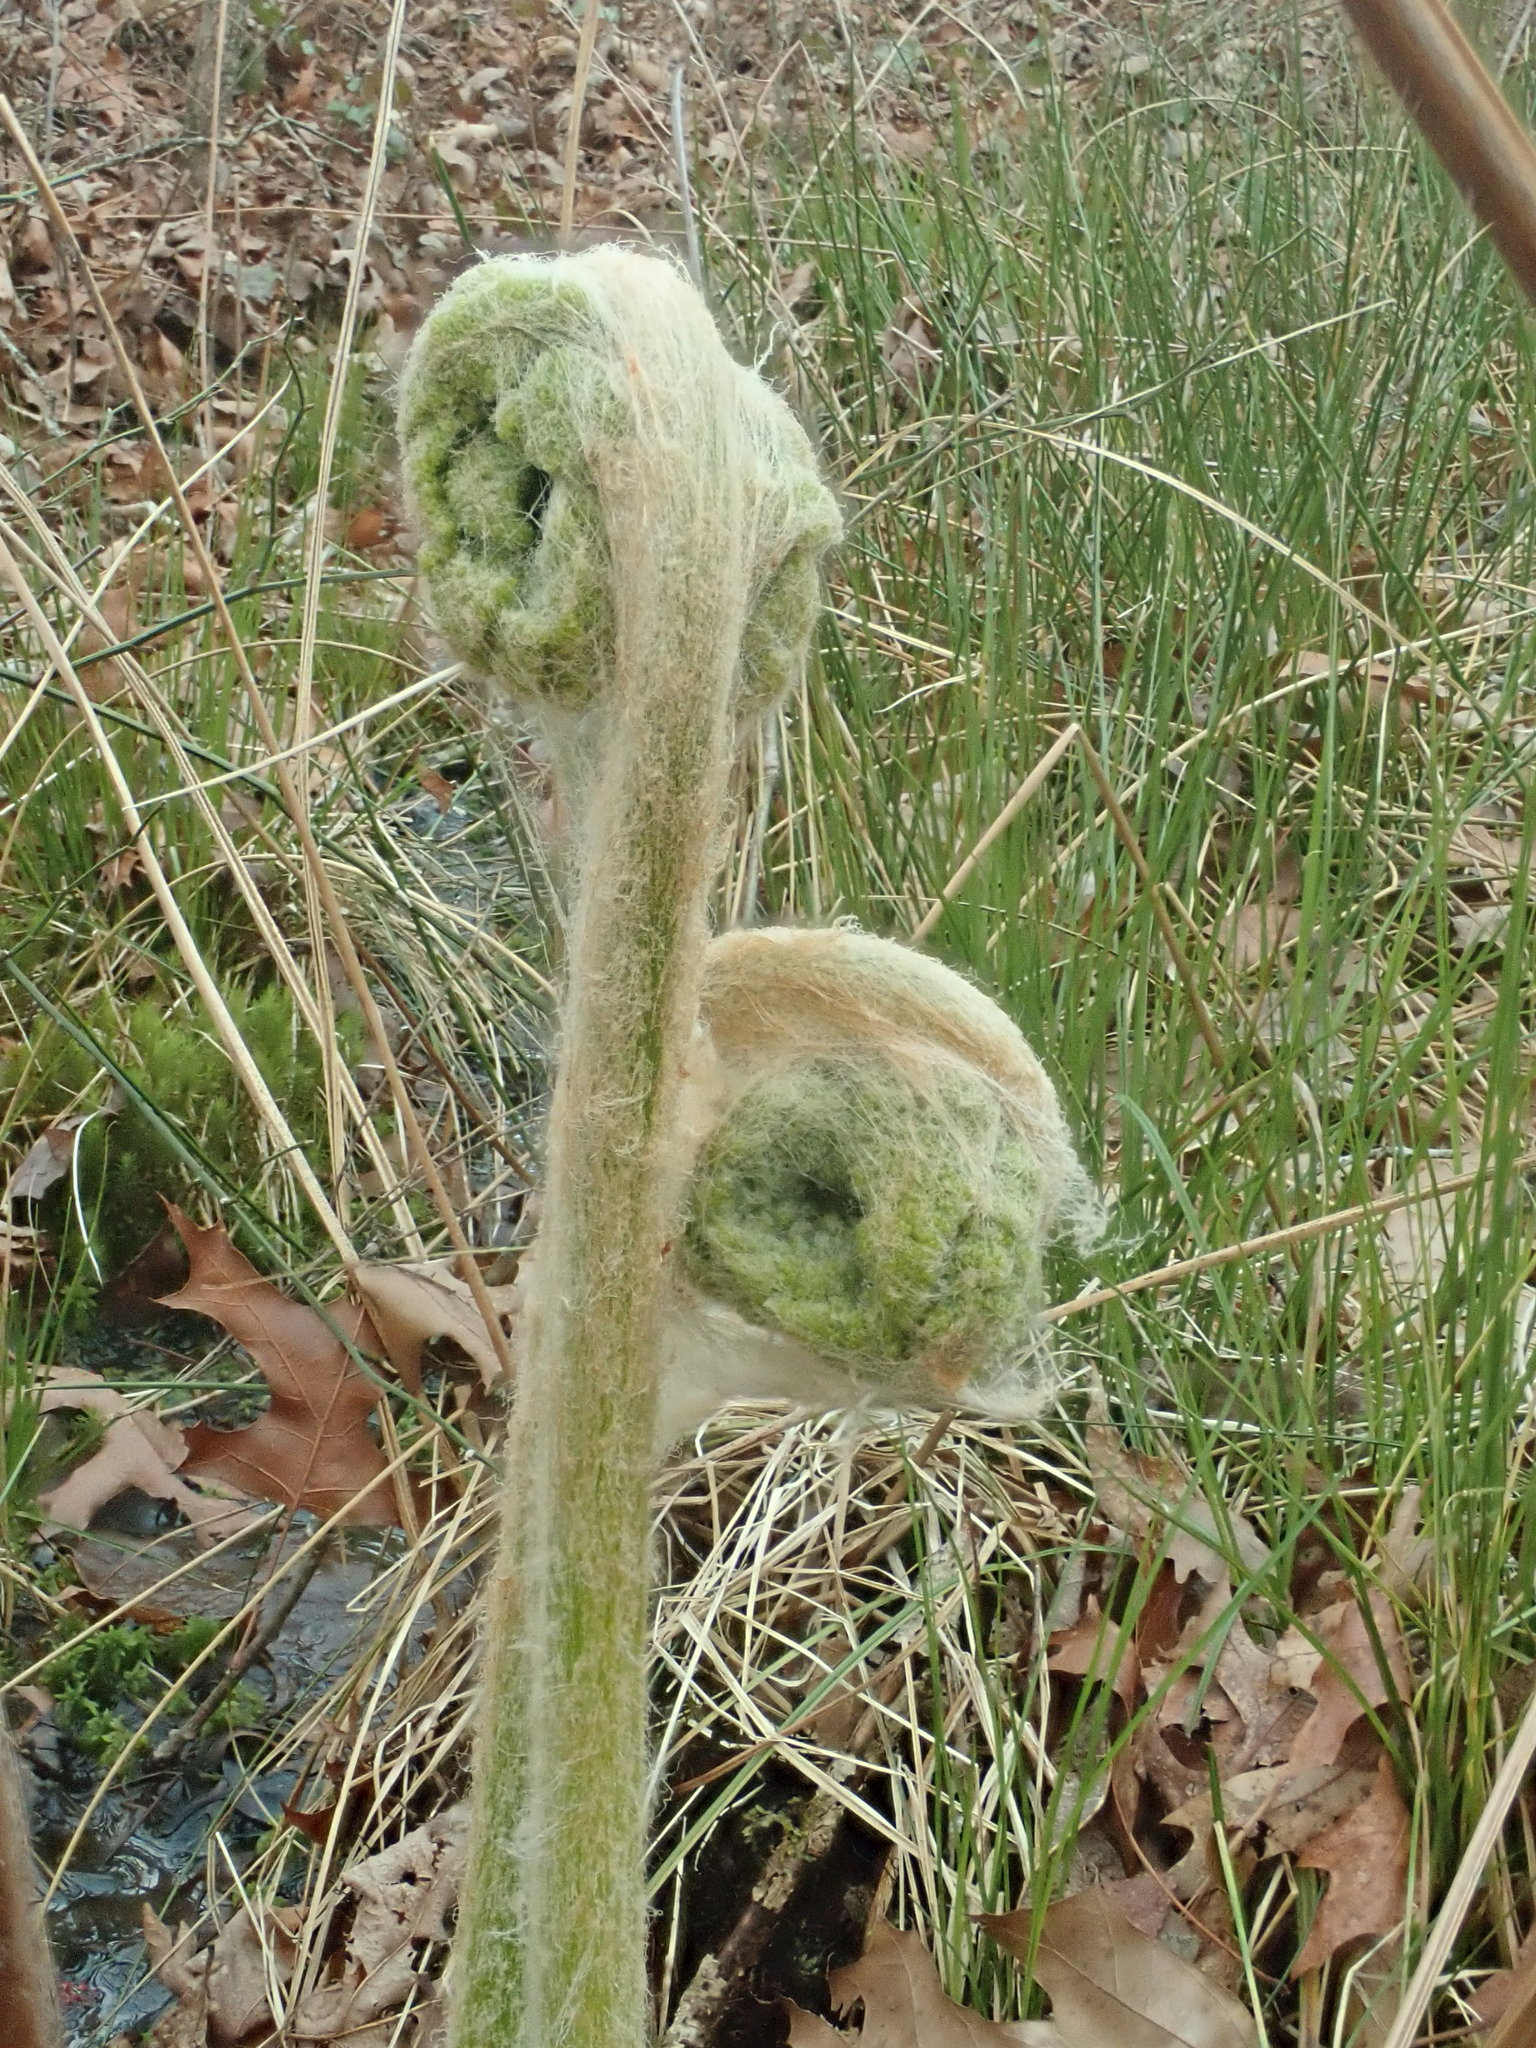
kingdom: Plantae
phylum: Tracheophyta
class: Polypodiopsida
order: Osmundales
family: Osmundaceae
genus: Osmundastrum
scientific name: Osmundastrum cinnamomeum
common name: Cinnamon fern
